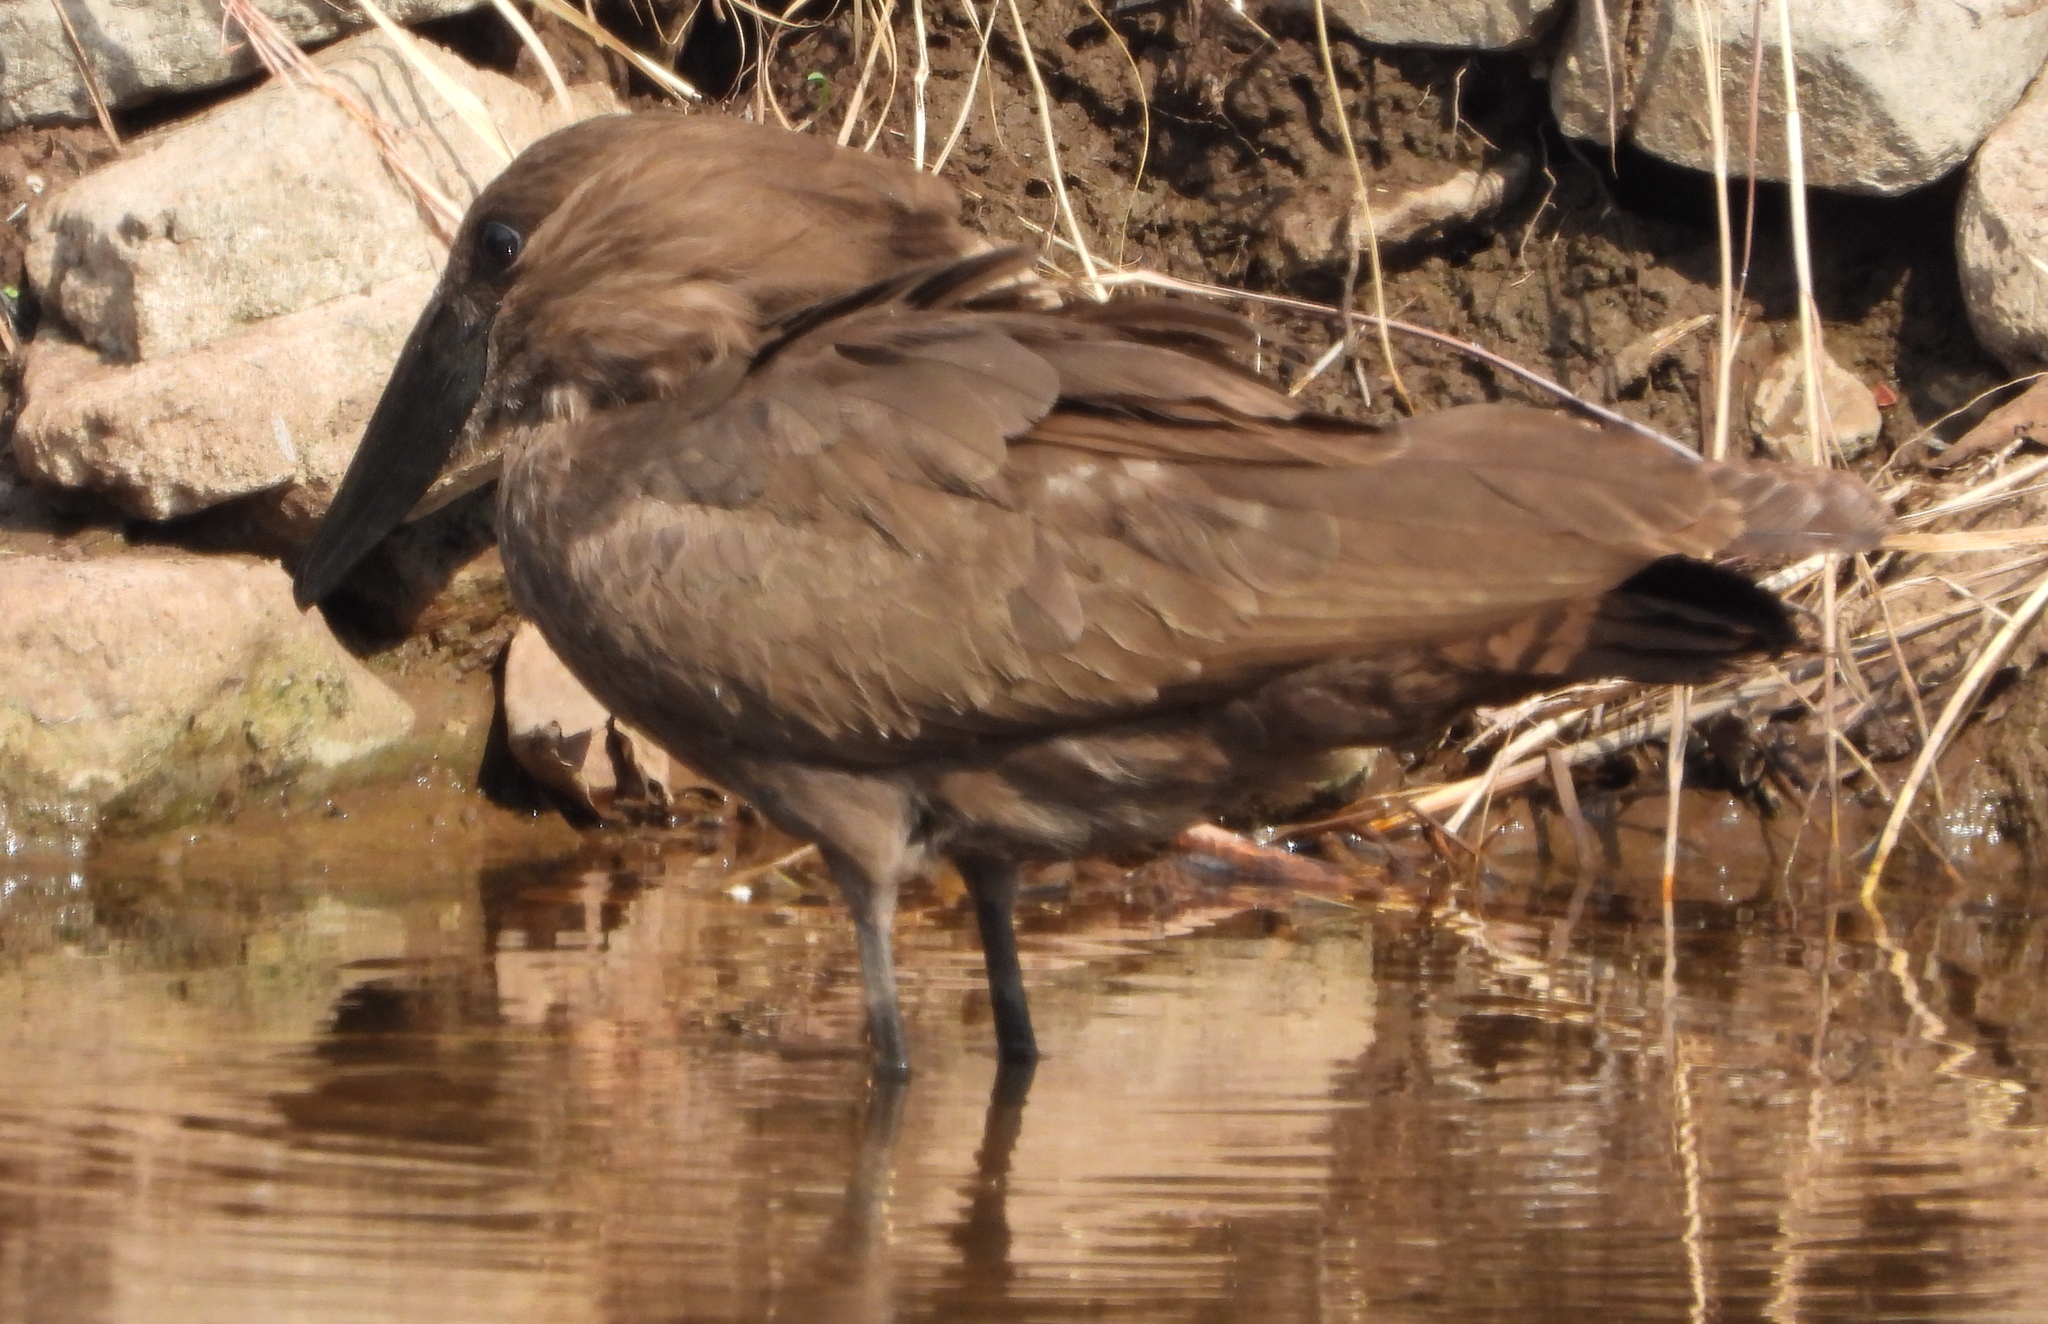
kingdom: Animalia
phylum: Chordata
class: Aves
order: Pelecaniformes
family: Scopidae
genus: Scopus
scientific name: Scopus umbretta
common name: Hamerkop
